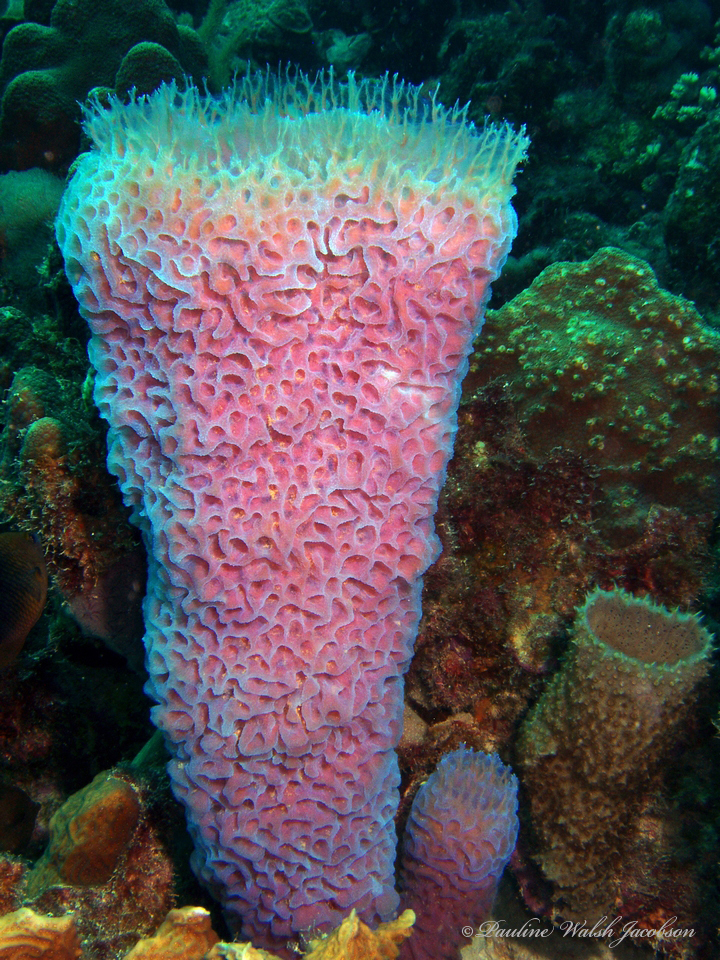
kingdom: Animalia
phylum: Porifera
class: Demospongiae
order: Haplosclerida
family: Callyspongiidae
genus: Callyspongia
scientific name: Callyspongia plicifera
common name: Azure vase sponge
